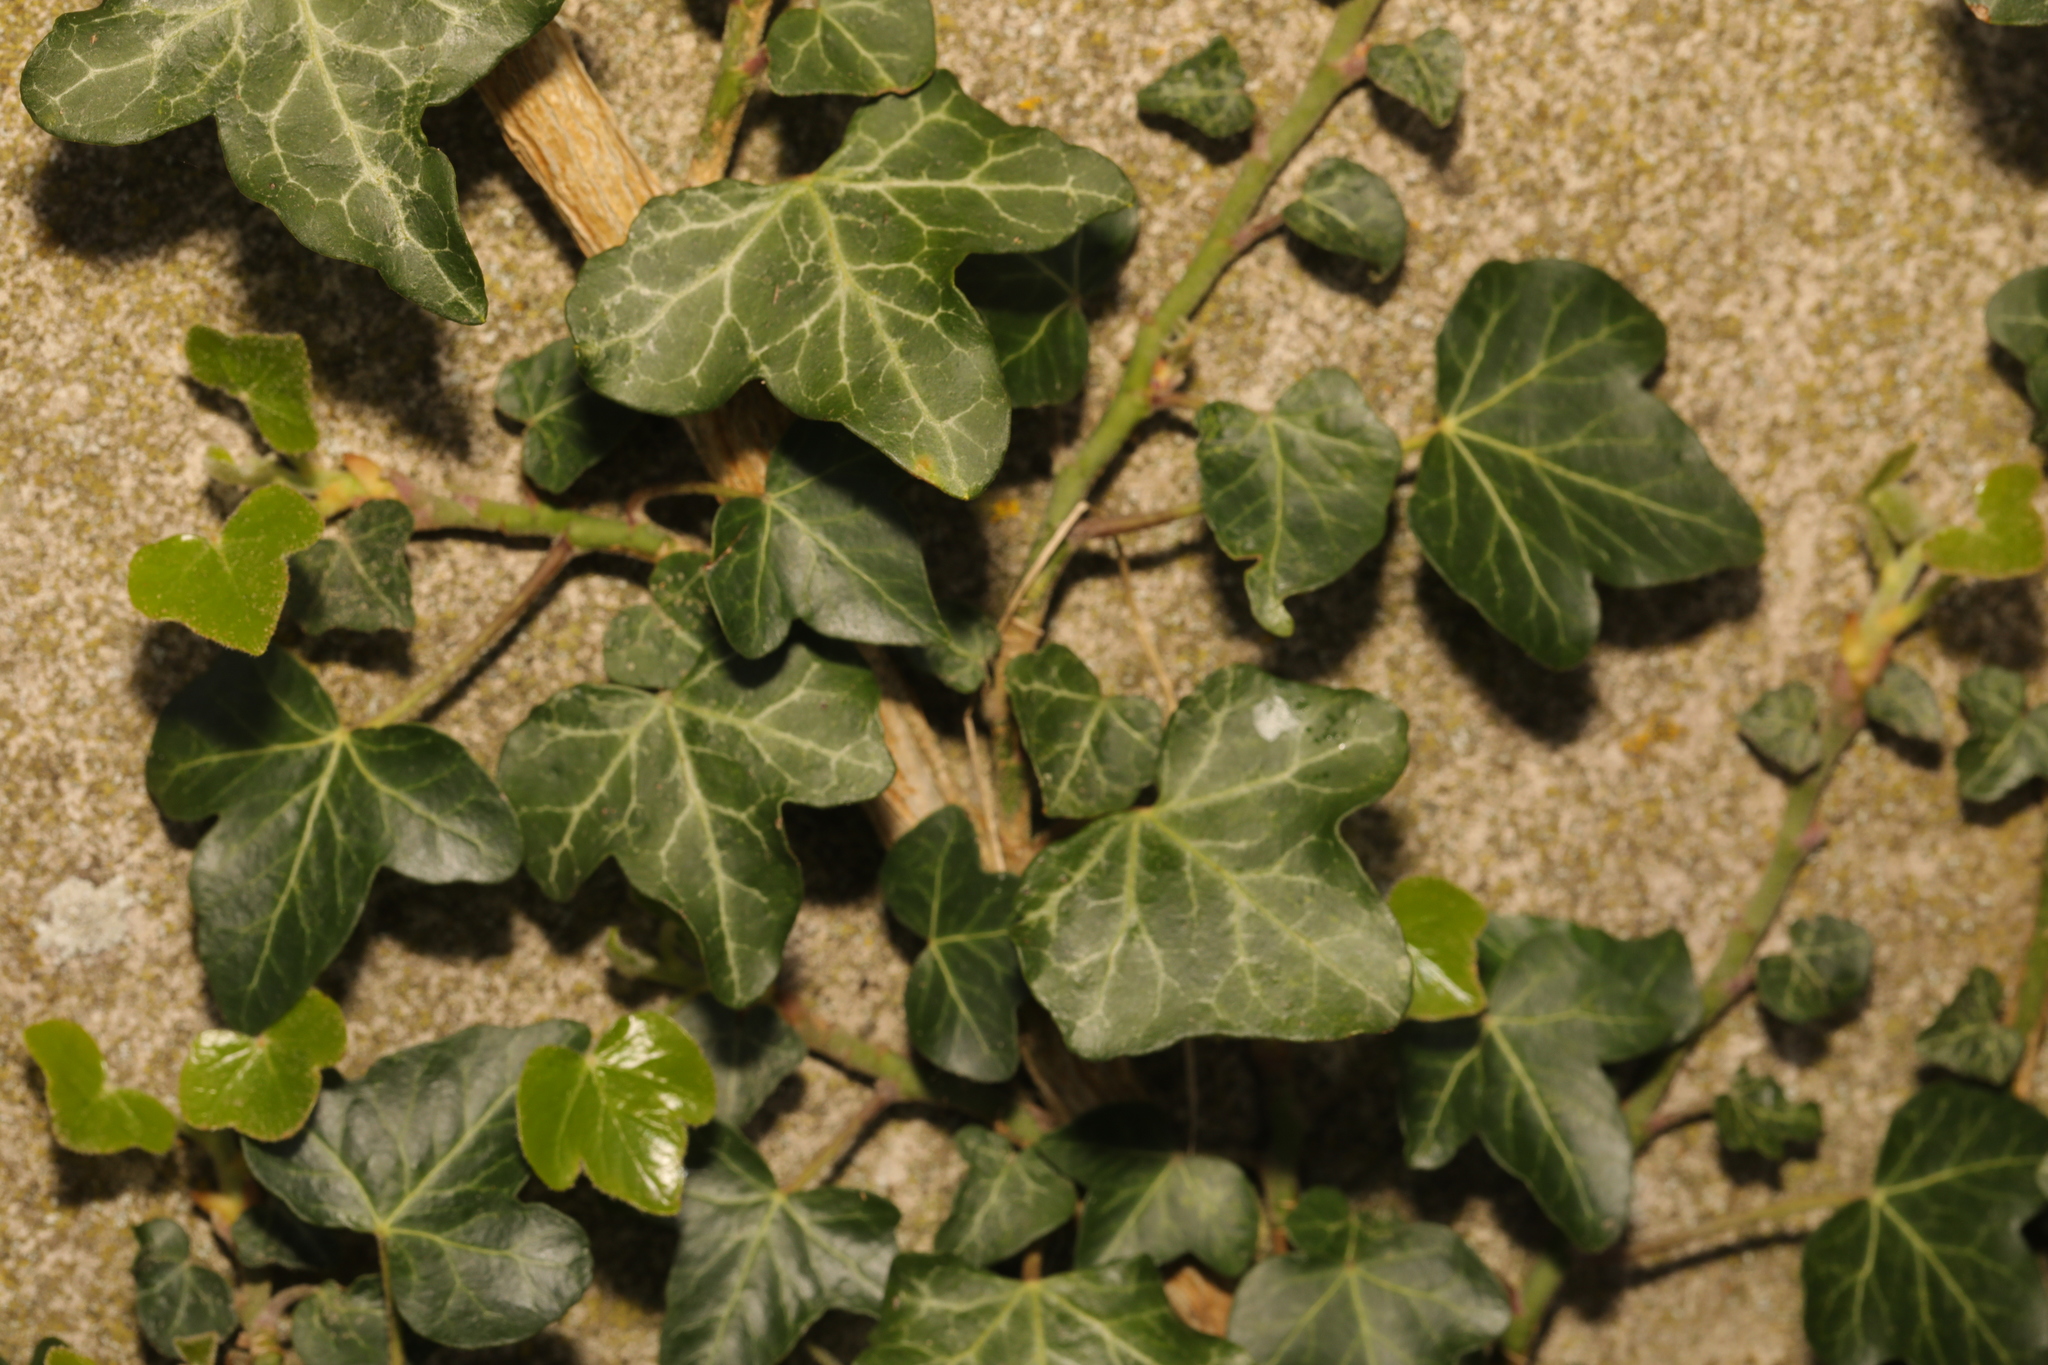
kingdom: Plantae
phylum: Tracheophyta
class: Magnoliopsida
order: Apiales
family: Araliaceae
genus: Hedera
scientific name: Hedera helix
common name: Ivy
